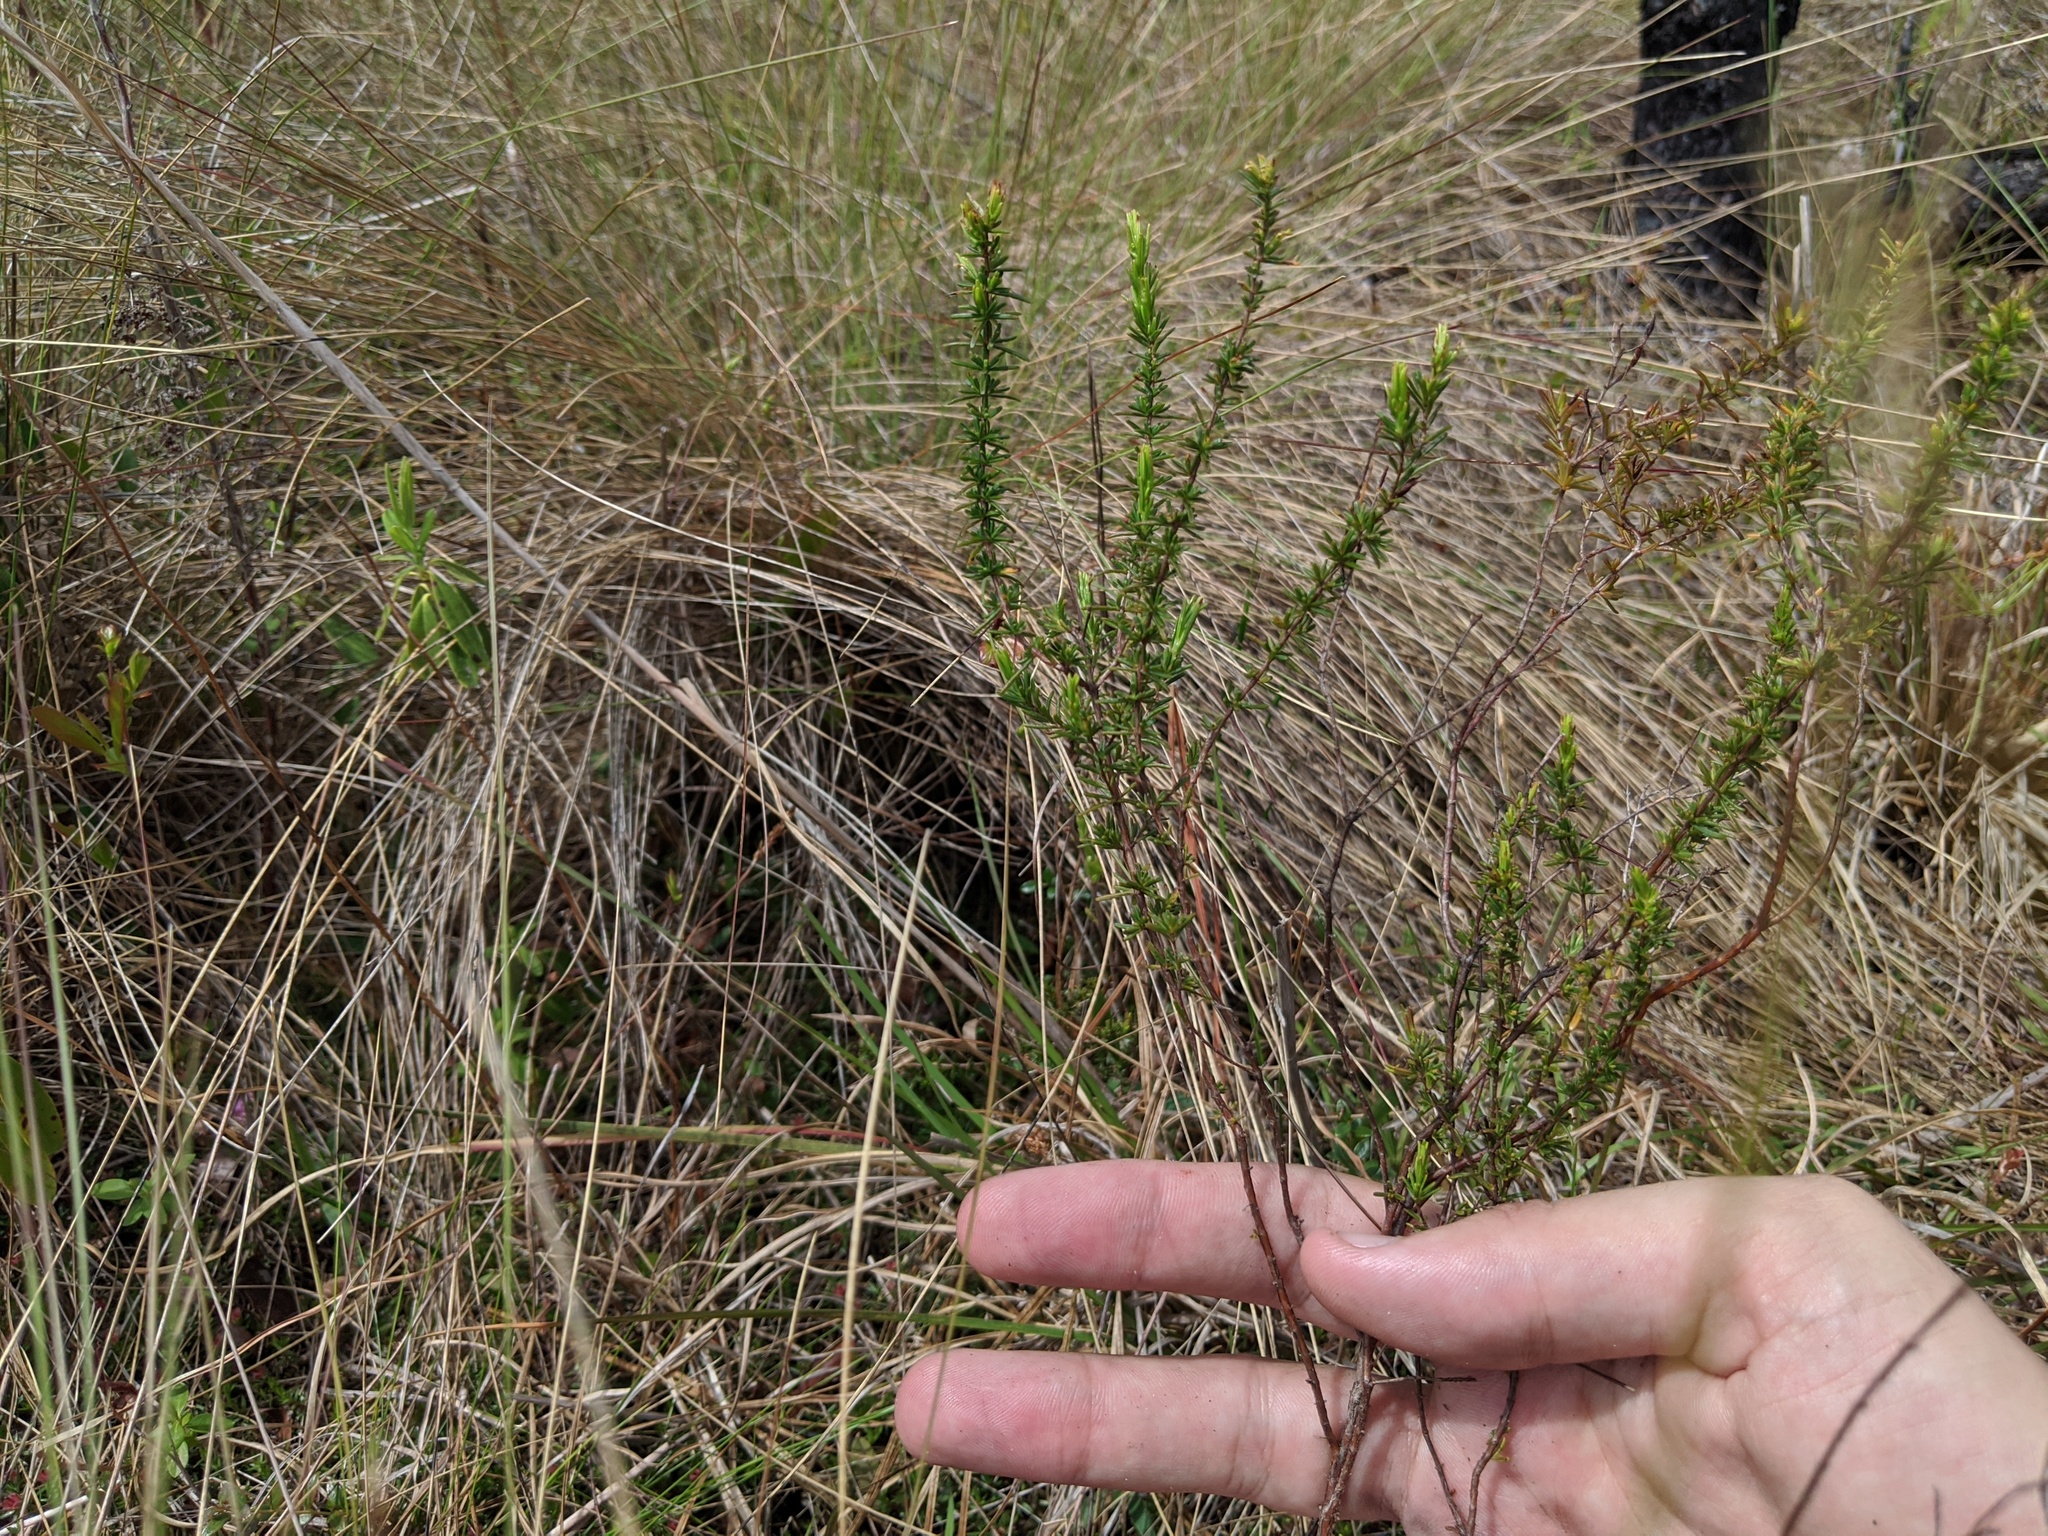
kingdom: Plantae
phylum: Tracheophyta
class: Magnoliopsida
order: Malpighiales
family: Hypericaceae
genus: Hypericum
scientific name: Hypericum tenuifolium
